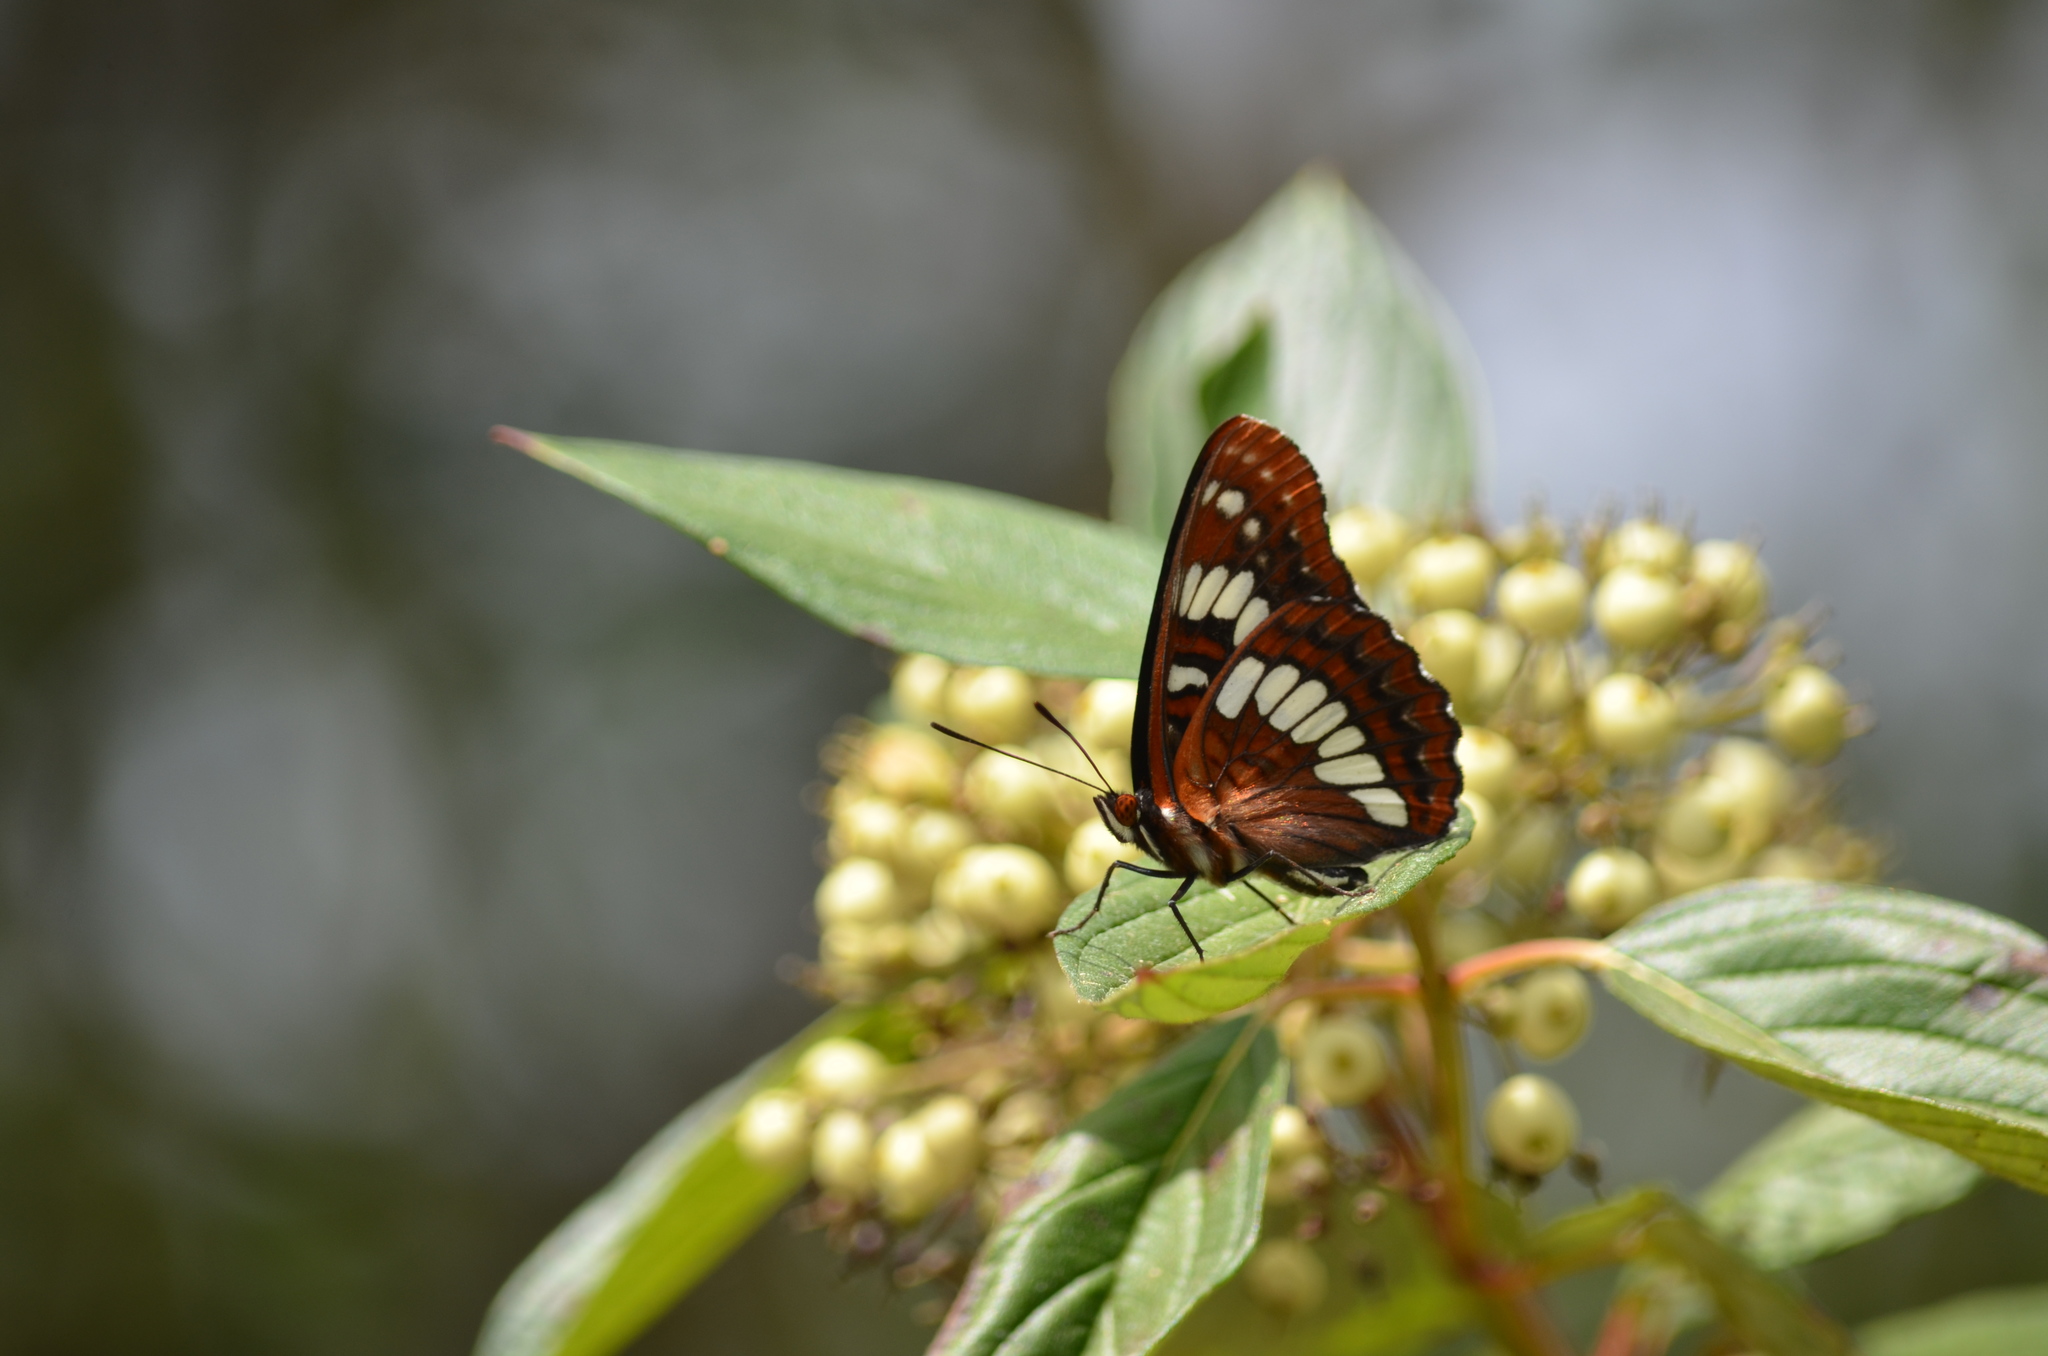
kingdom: Animalia
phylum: Arthropoda
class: Insecta
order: Lepidoptera
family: Nymphalidae
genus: Limenitis
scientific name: Limenitis lorquini
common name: Lorquin's admiral
